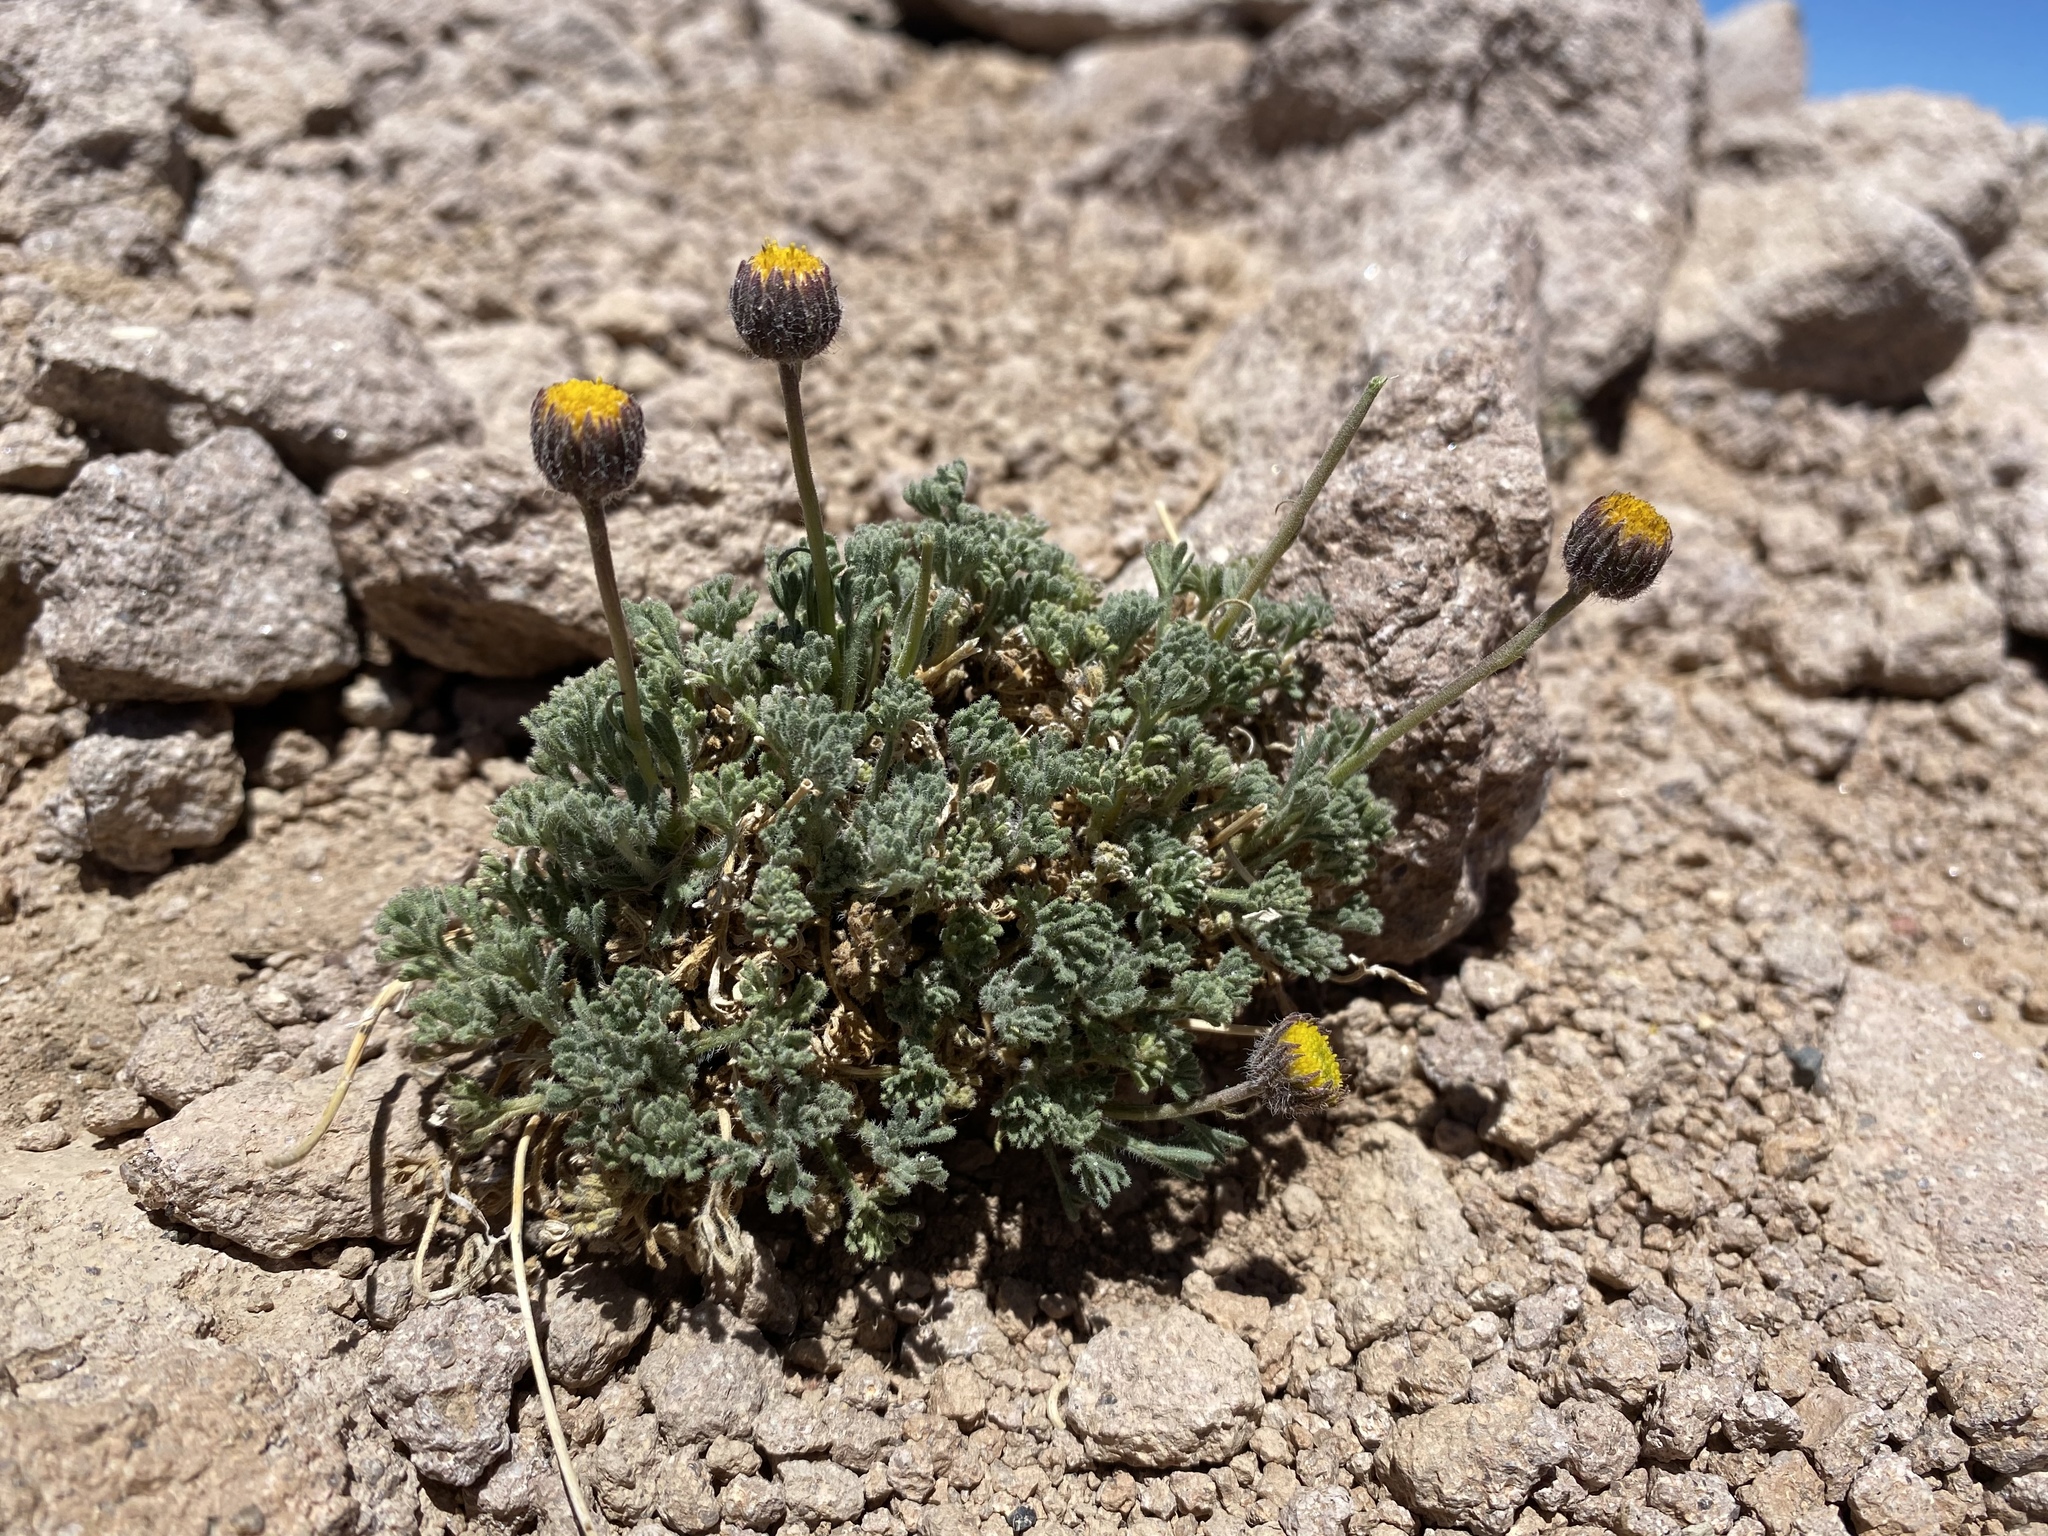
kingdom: Plantae
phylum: Tracheophyta
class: Magnoliopsida
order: Asterales
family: Asteraceae
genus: Erigeron
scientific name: Erigeron compositus
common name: Dwarf mountain fleabane
